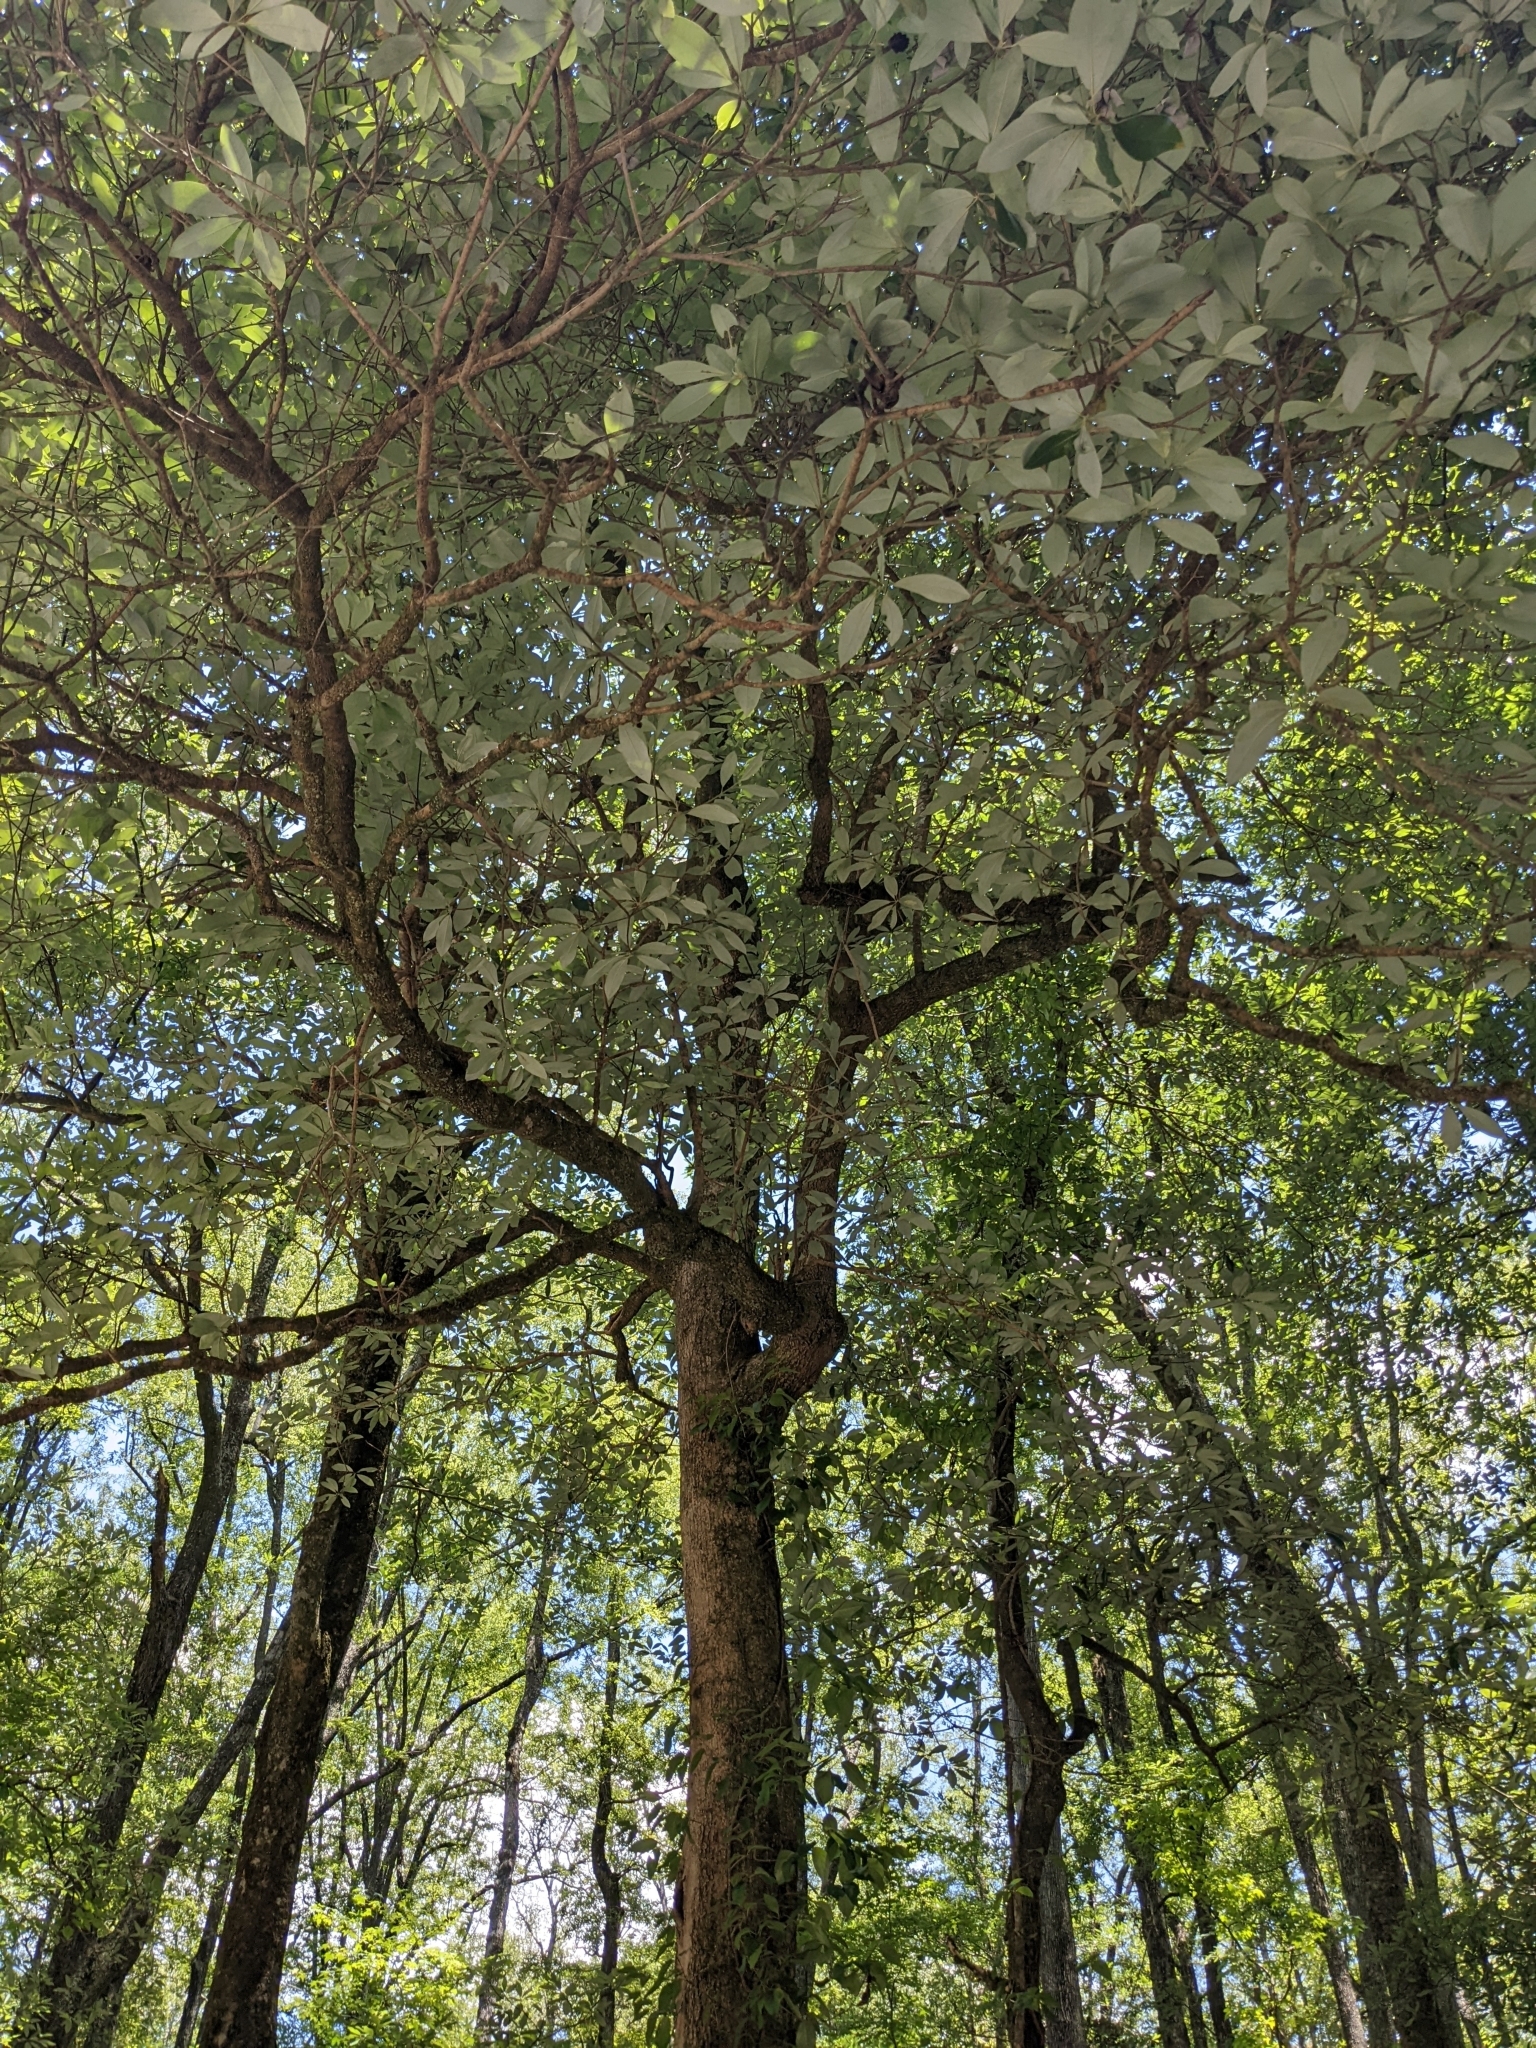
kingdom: Plantae
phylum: Tracheophyta
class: Magnoliopsida
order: Magnoliales
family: Magnoliaceae
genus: Magnolia
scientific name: Magnolia virginiana
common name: Swamp bay
